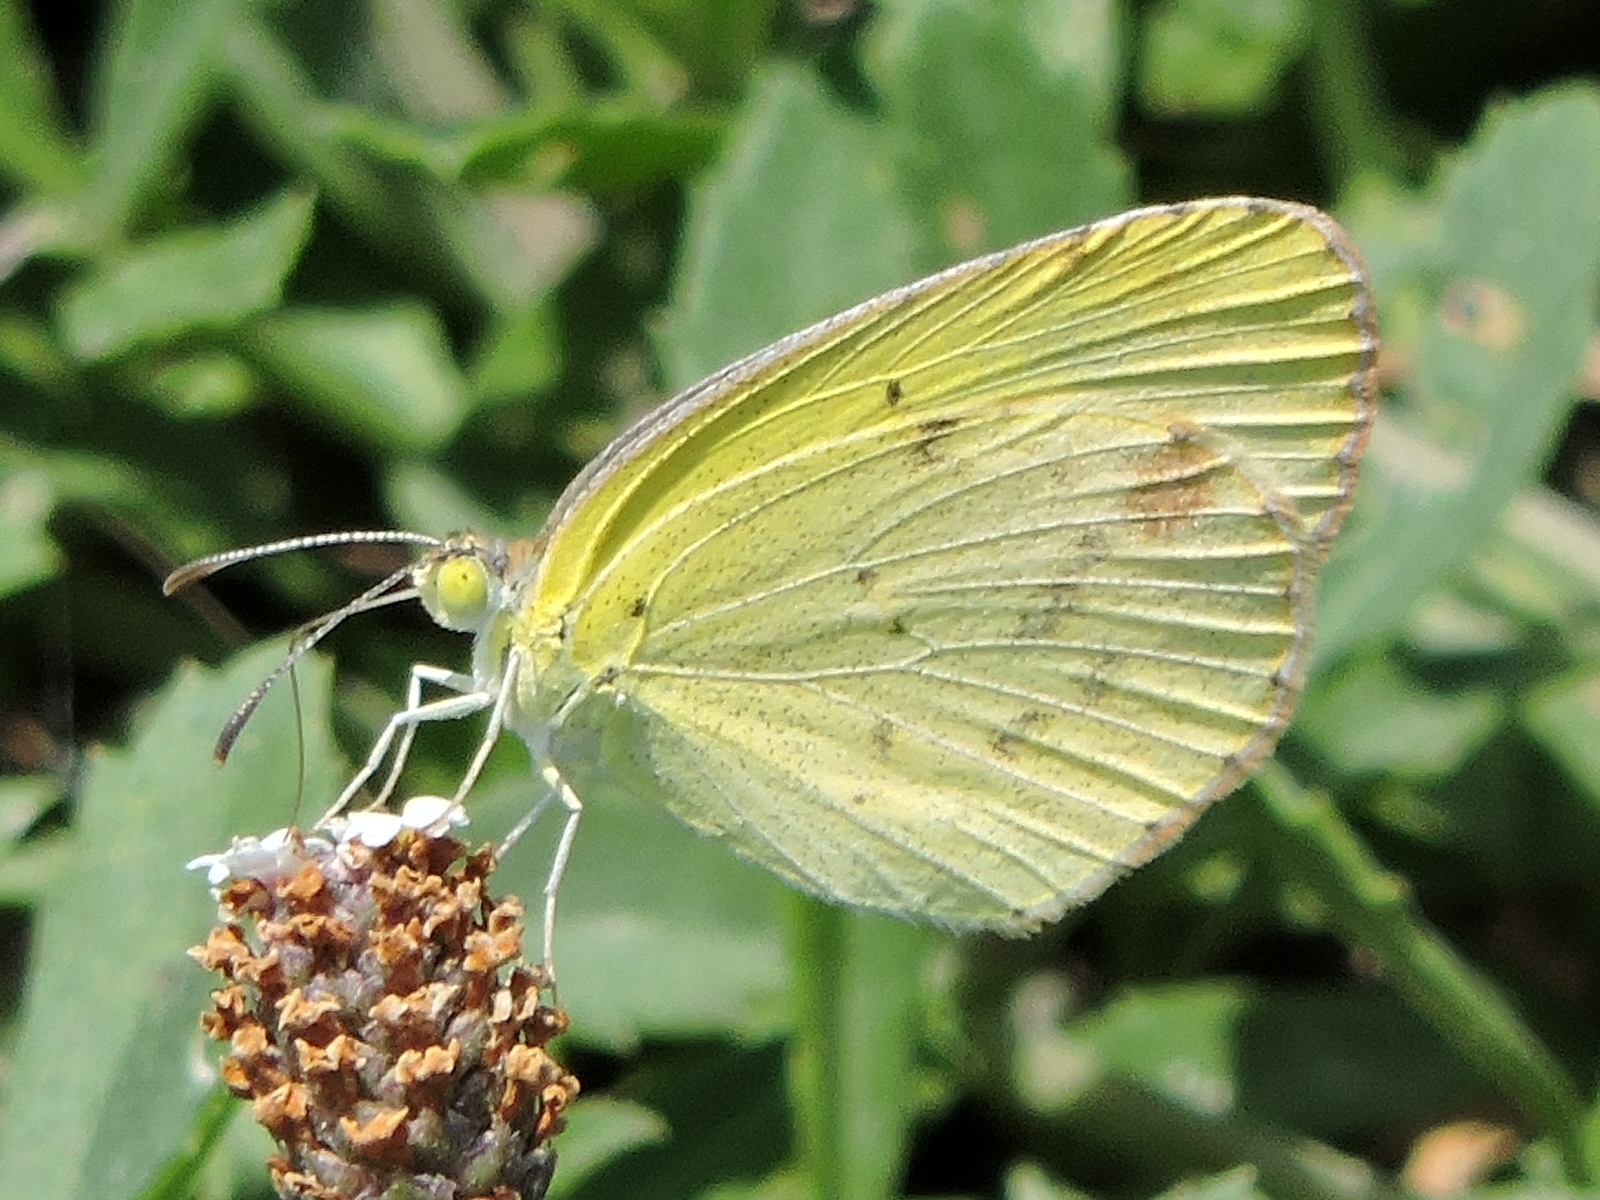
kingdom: Animalia
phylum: Arthropoda
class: Insecta
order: Lepidoptera
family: Pieridae
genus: Pyrisitia
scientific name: Pyrisitia lisa
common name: Little yellow
